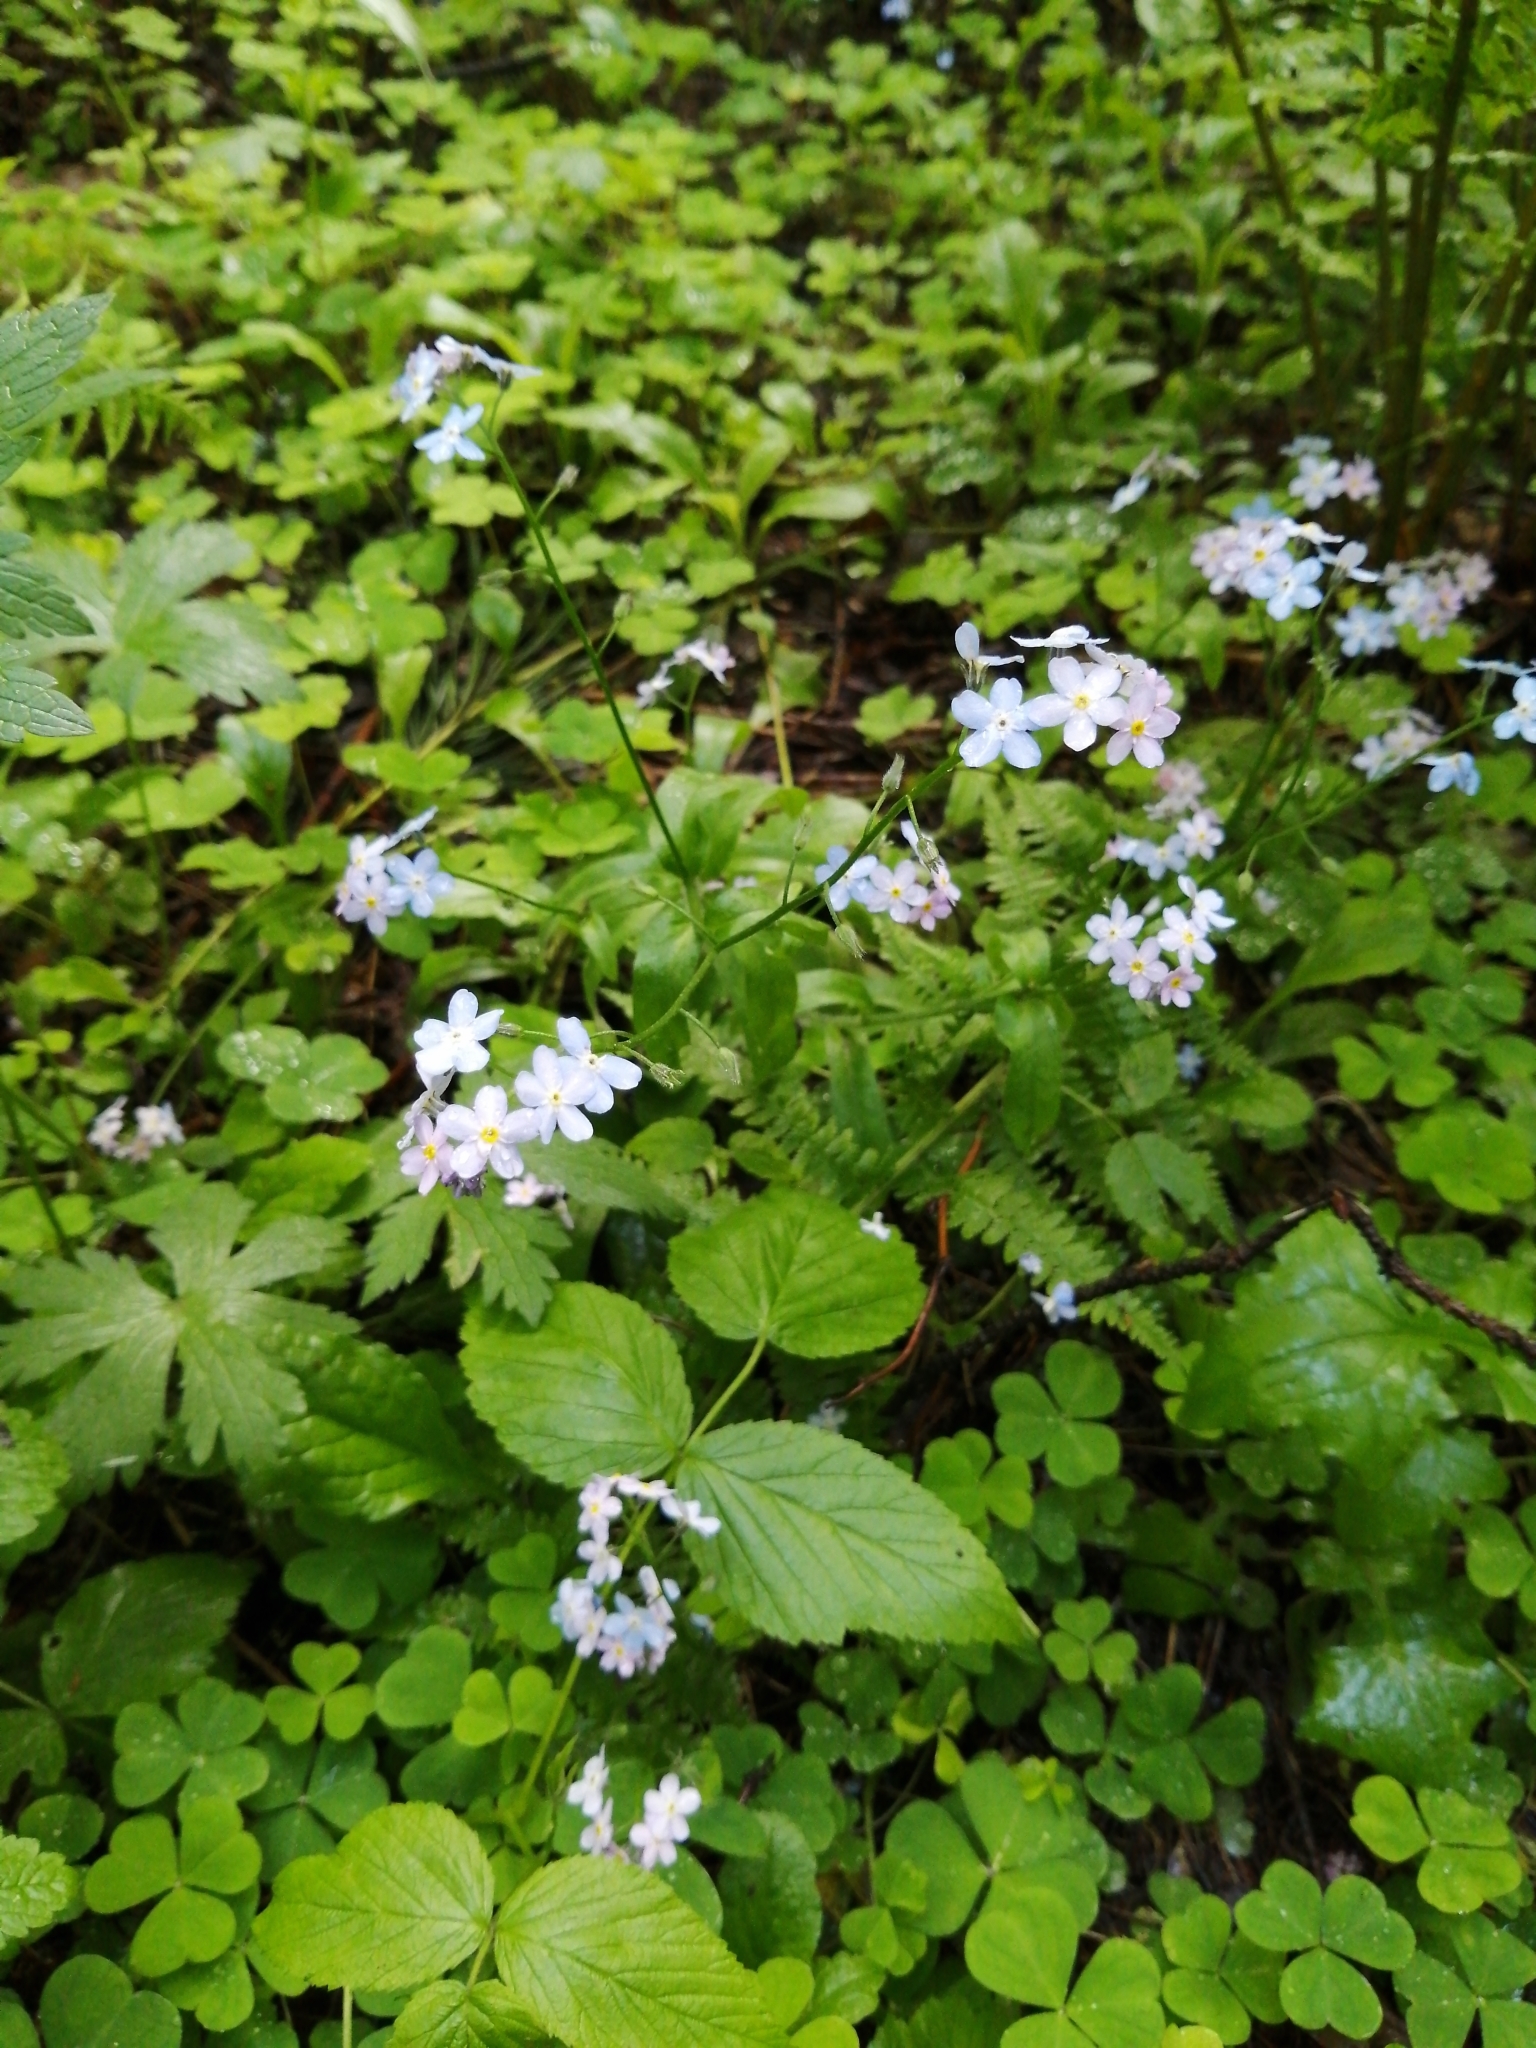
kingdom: Plantae
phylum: Tracheophyta
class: Magnoliopsida
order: Boraginales
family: Boraginaceae
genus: Myosotis
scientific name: Myosotis sylvatica
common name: Wood forget-me-not
